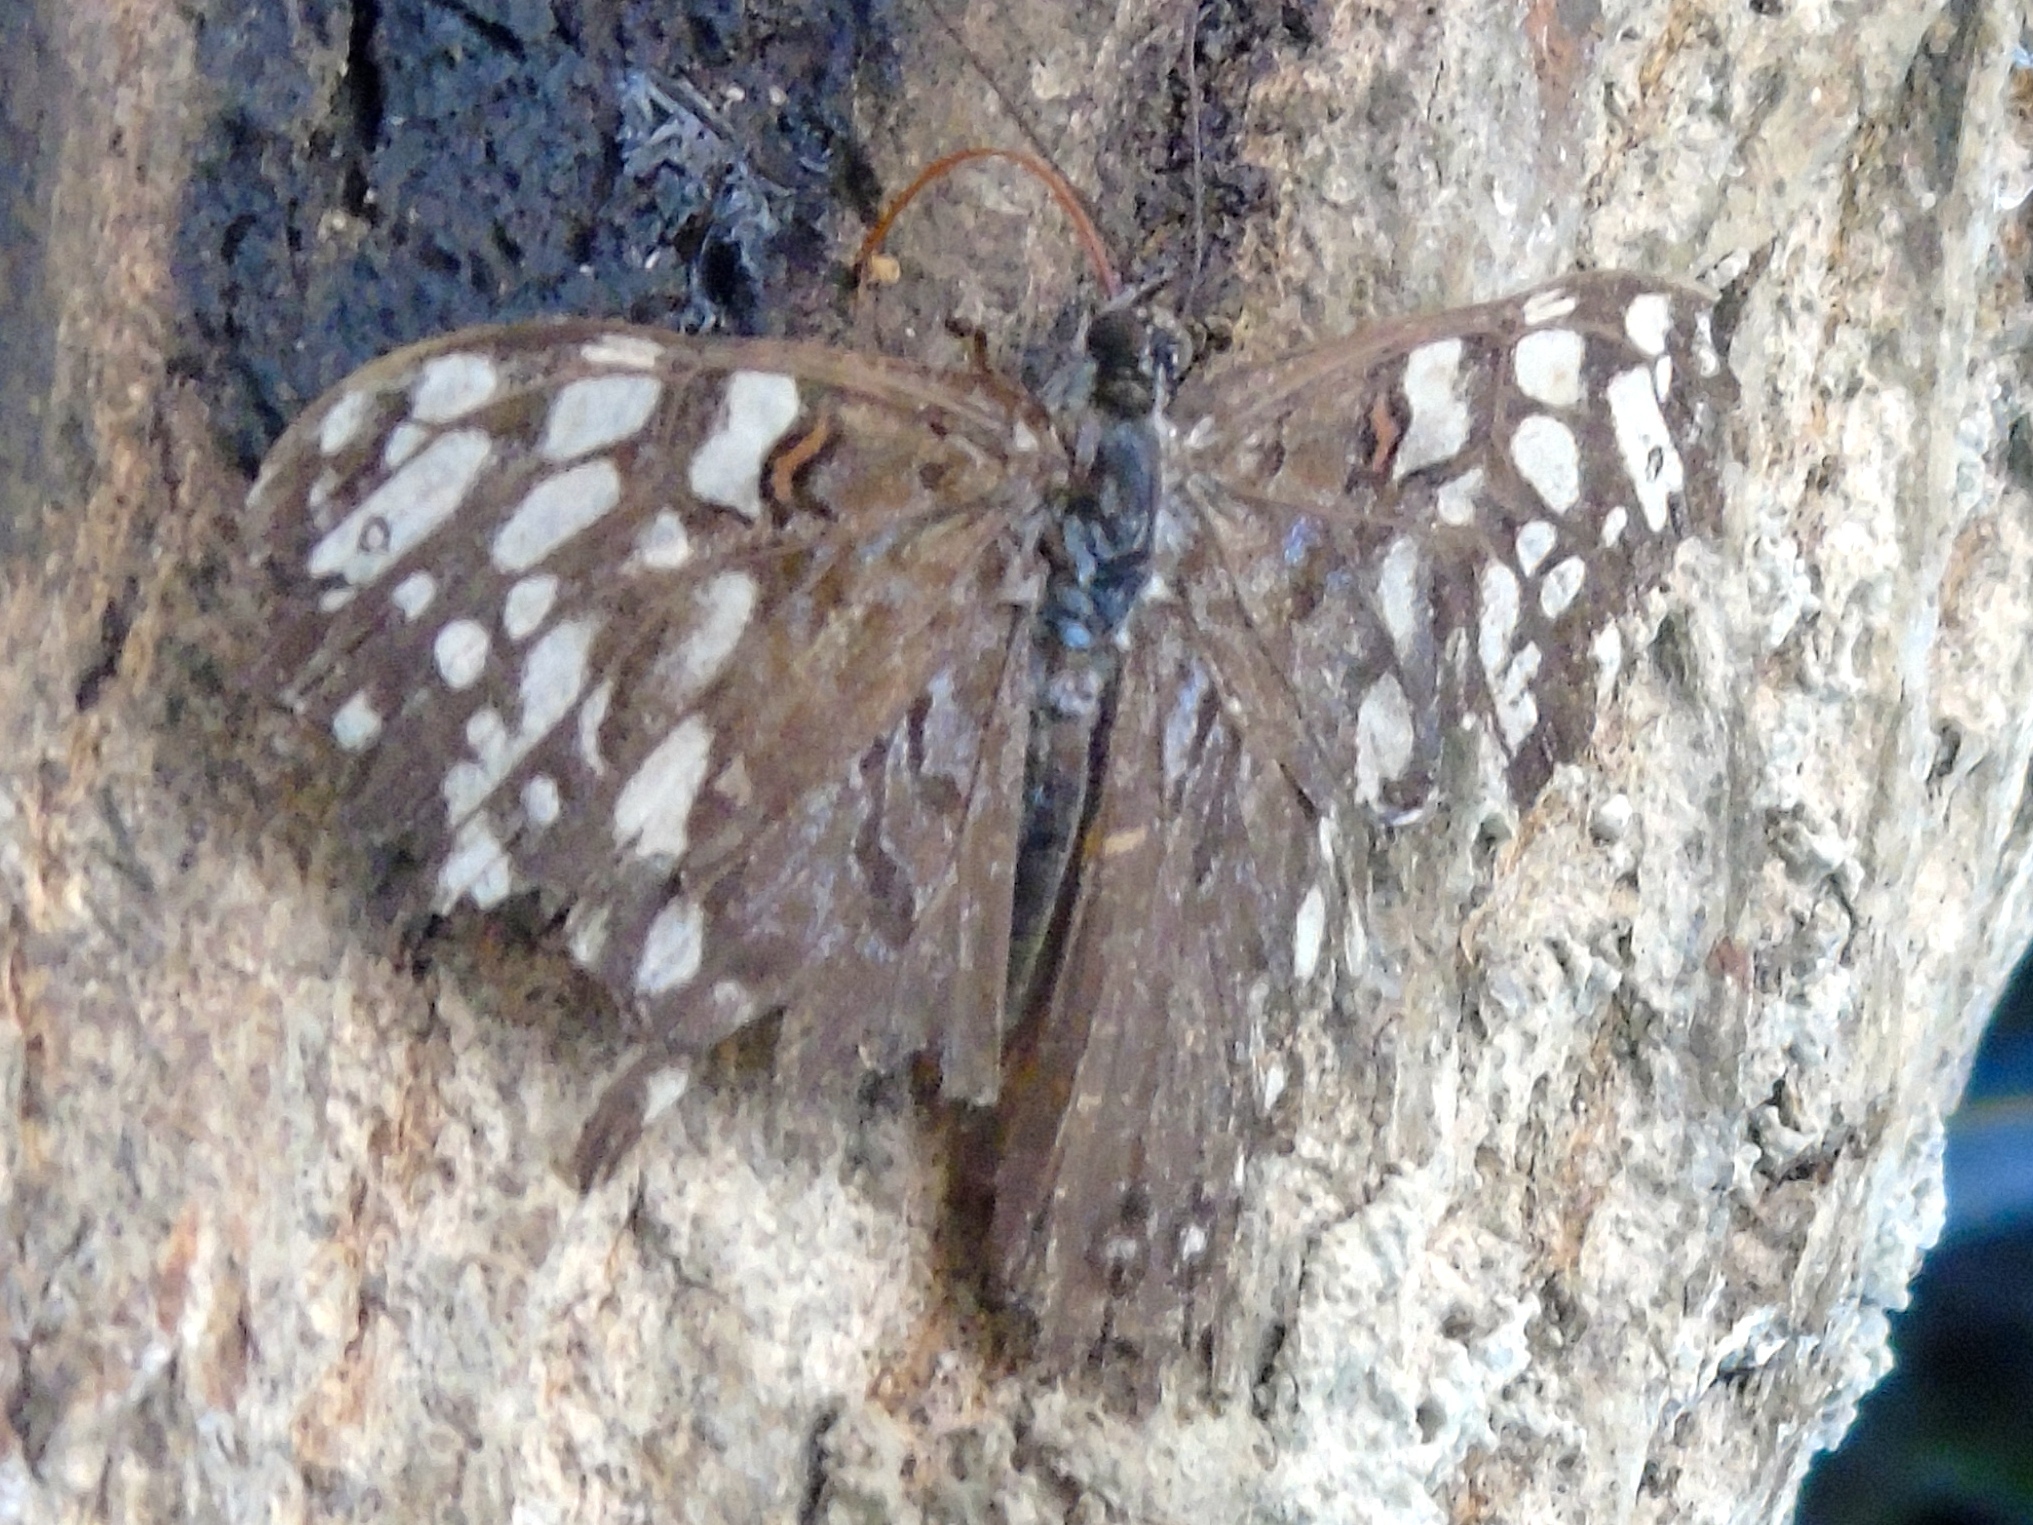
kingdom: Animalia
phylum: Arthropoda
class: Insecta
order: Lepidoptera
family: Nymphalidae
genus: Hamadryas
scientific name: Hamadryas guatemalena
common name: Guatemalan cracker
